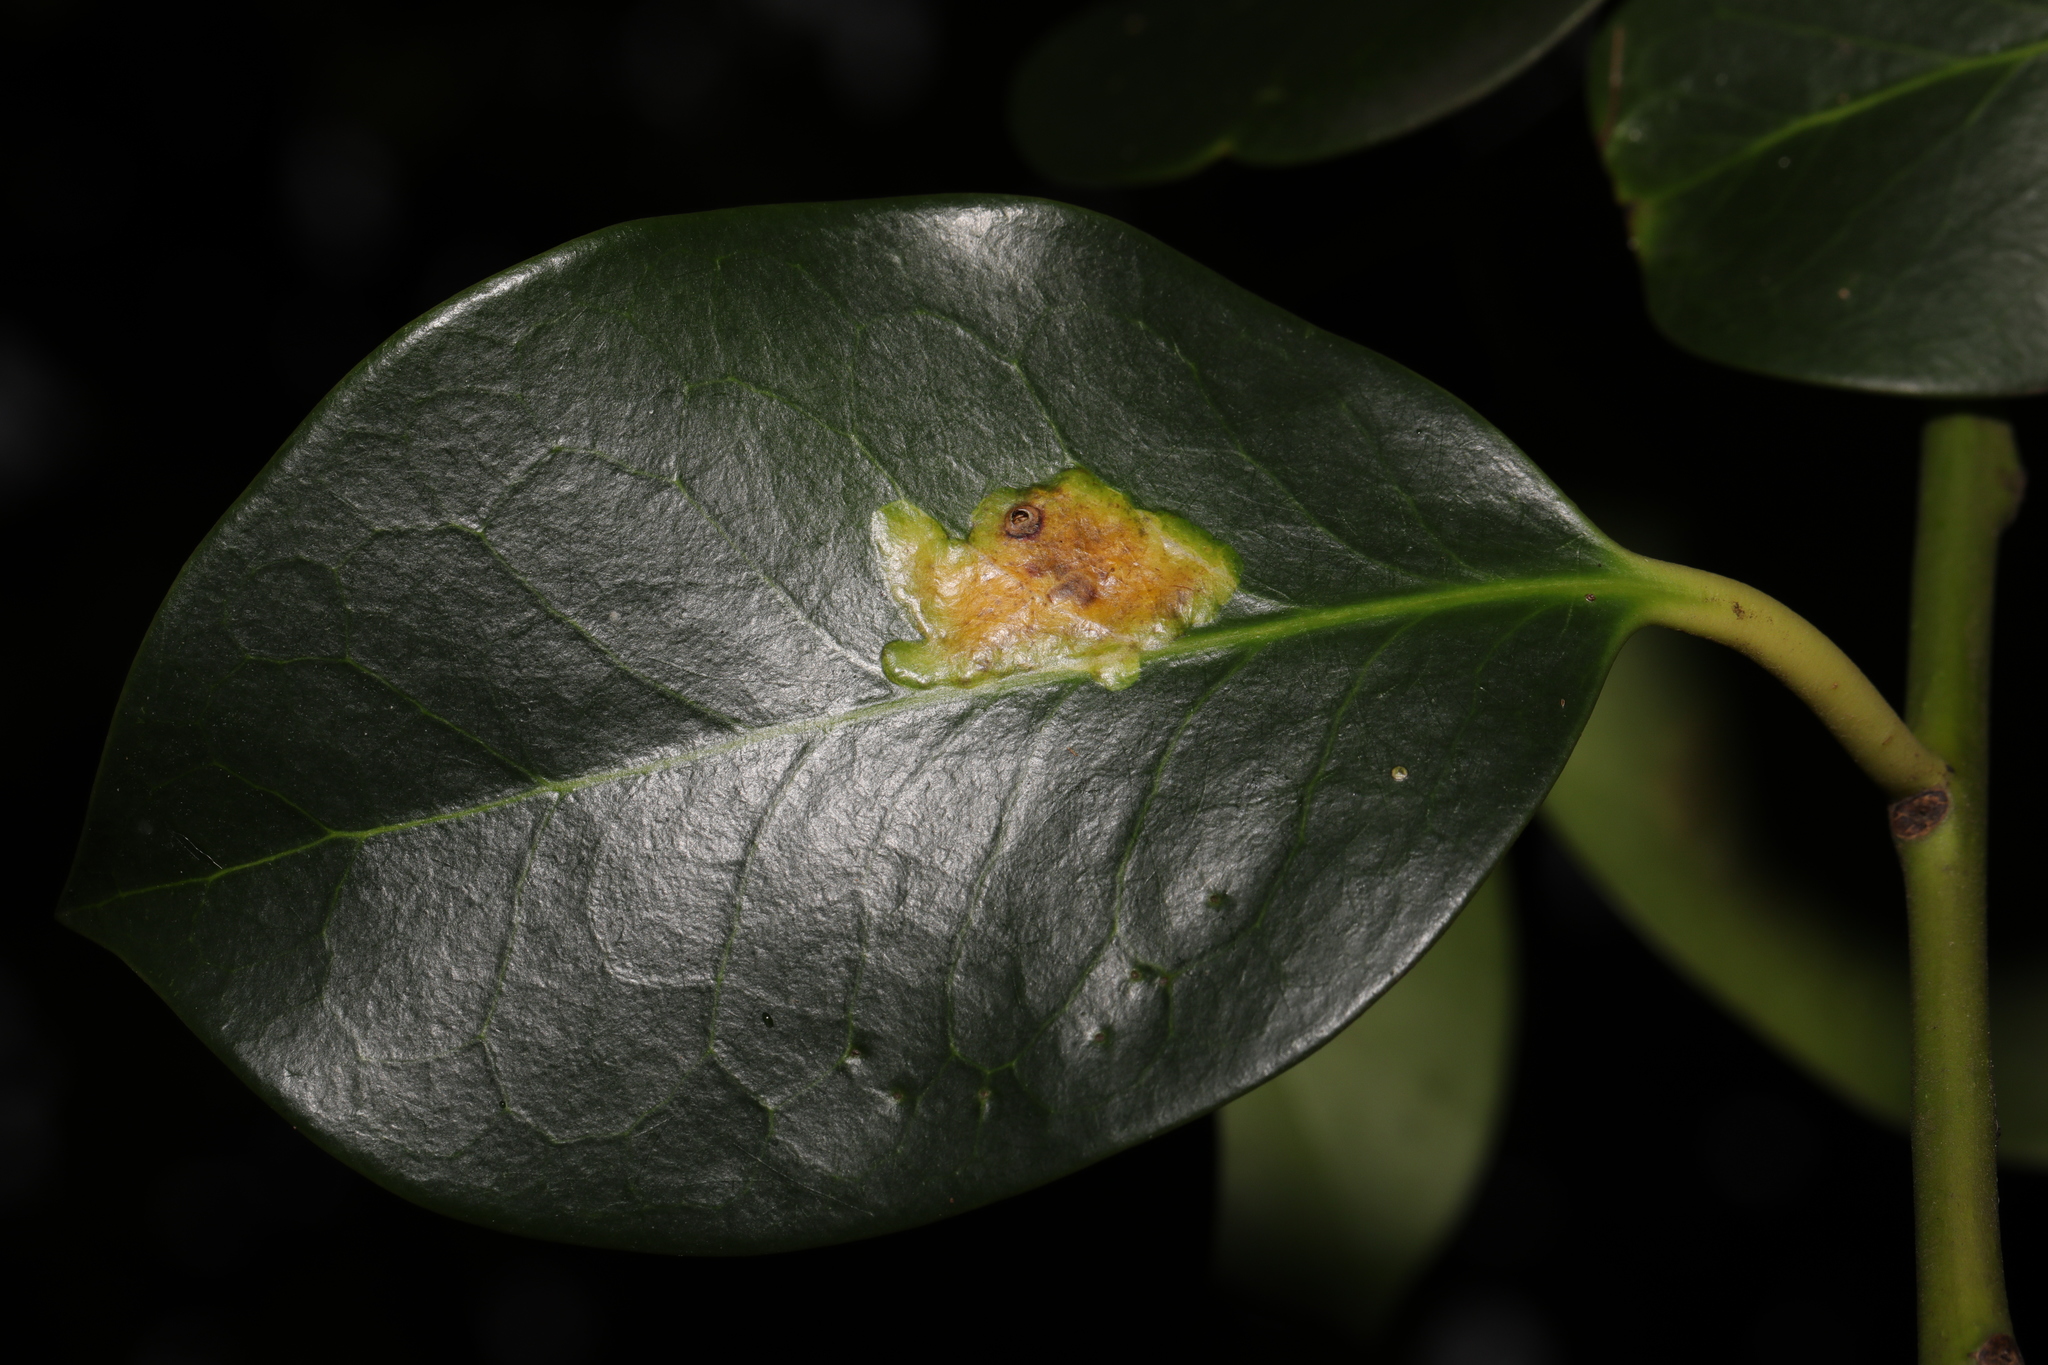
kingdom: Animalia
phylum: Arthropoda
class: Insecta
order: Diptera
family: Agromyzidae
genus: Phytomyza
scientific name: Phytomyza ilicis
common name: Holly leafminer
